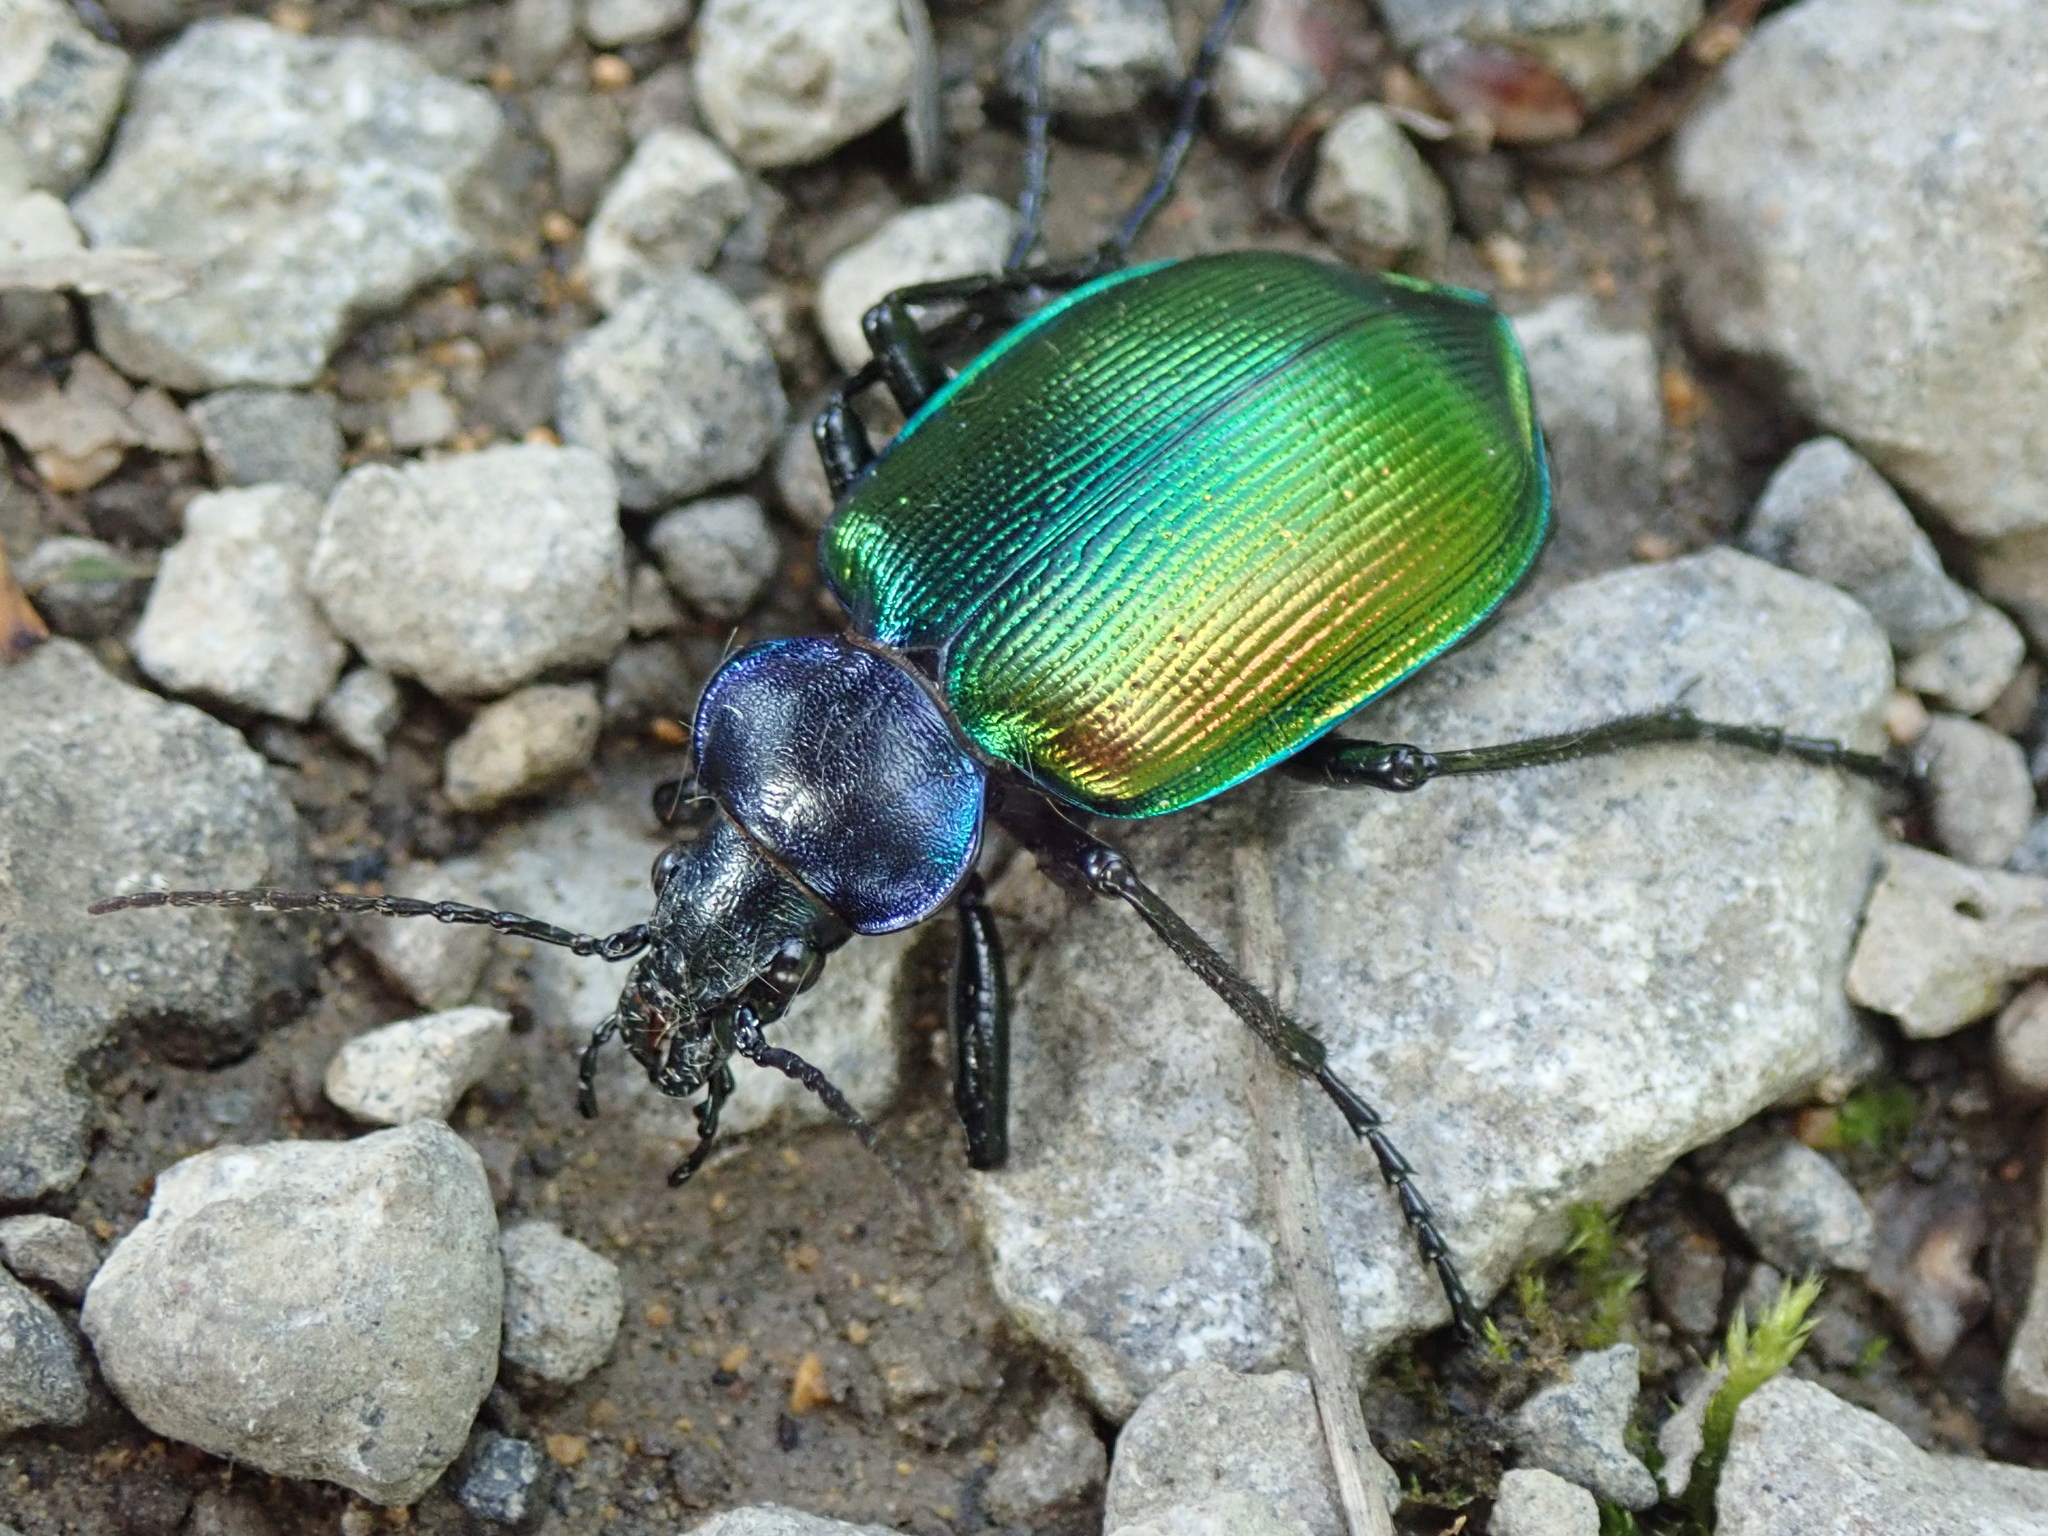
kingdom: Animalia
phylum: Arthropoda
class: Insecta
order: Coleoptera
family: Carabidae
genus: Calosoma
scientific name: Calosoma sycophanta
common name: Forest caterpillar hunter
